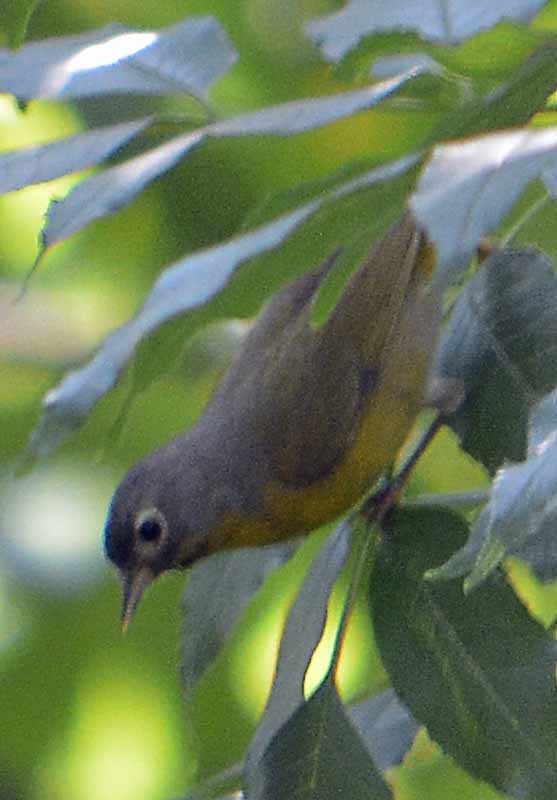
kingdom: Animalia
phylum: Chordata
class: Aves
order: Passeriformes
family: Parulidae
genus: Leiothlypis
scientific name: Leiothlypis ruficapilla
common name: Nashville warbler
